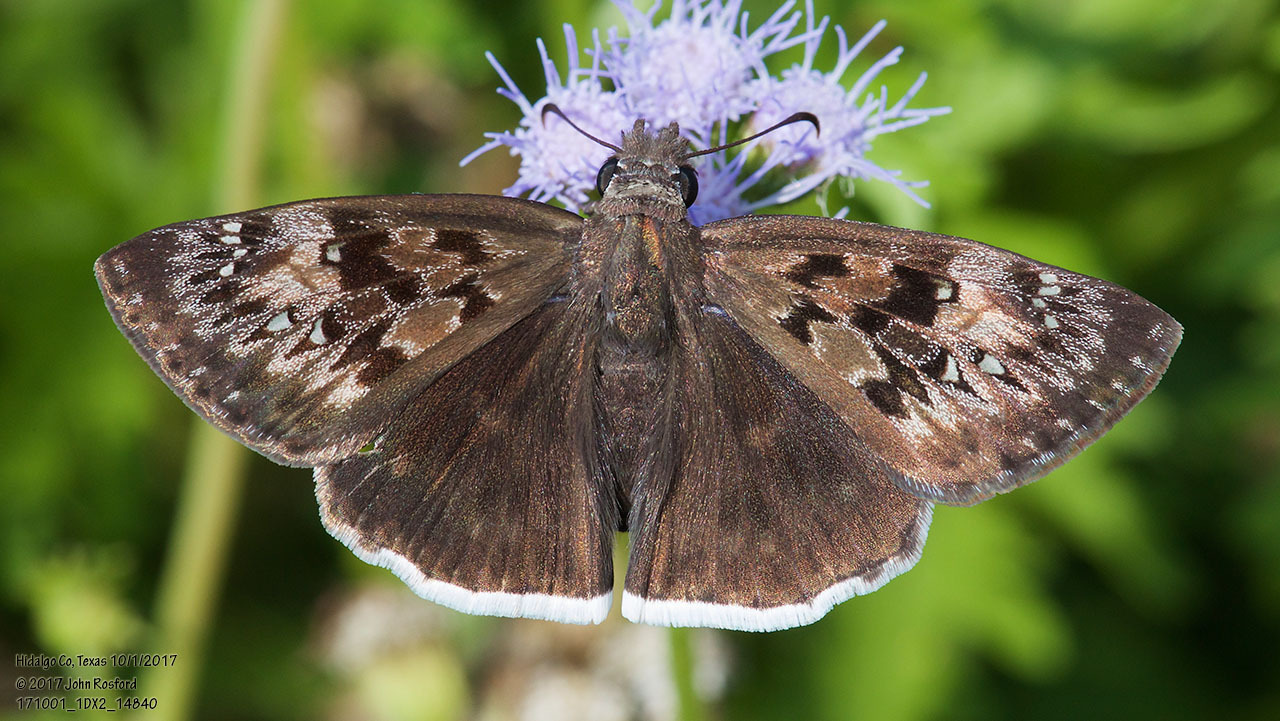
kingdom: Animalia
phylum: Arthropoda
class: Insecta
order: Lepidoptera
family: Hesperiidae
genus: Erynnis
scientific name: Erynnis tristis
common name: Mournful duskywing
